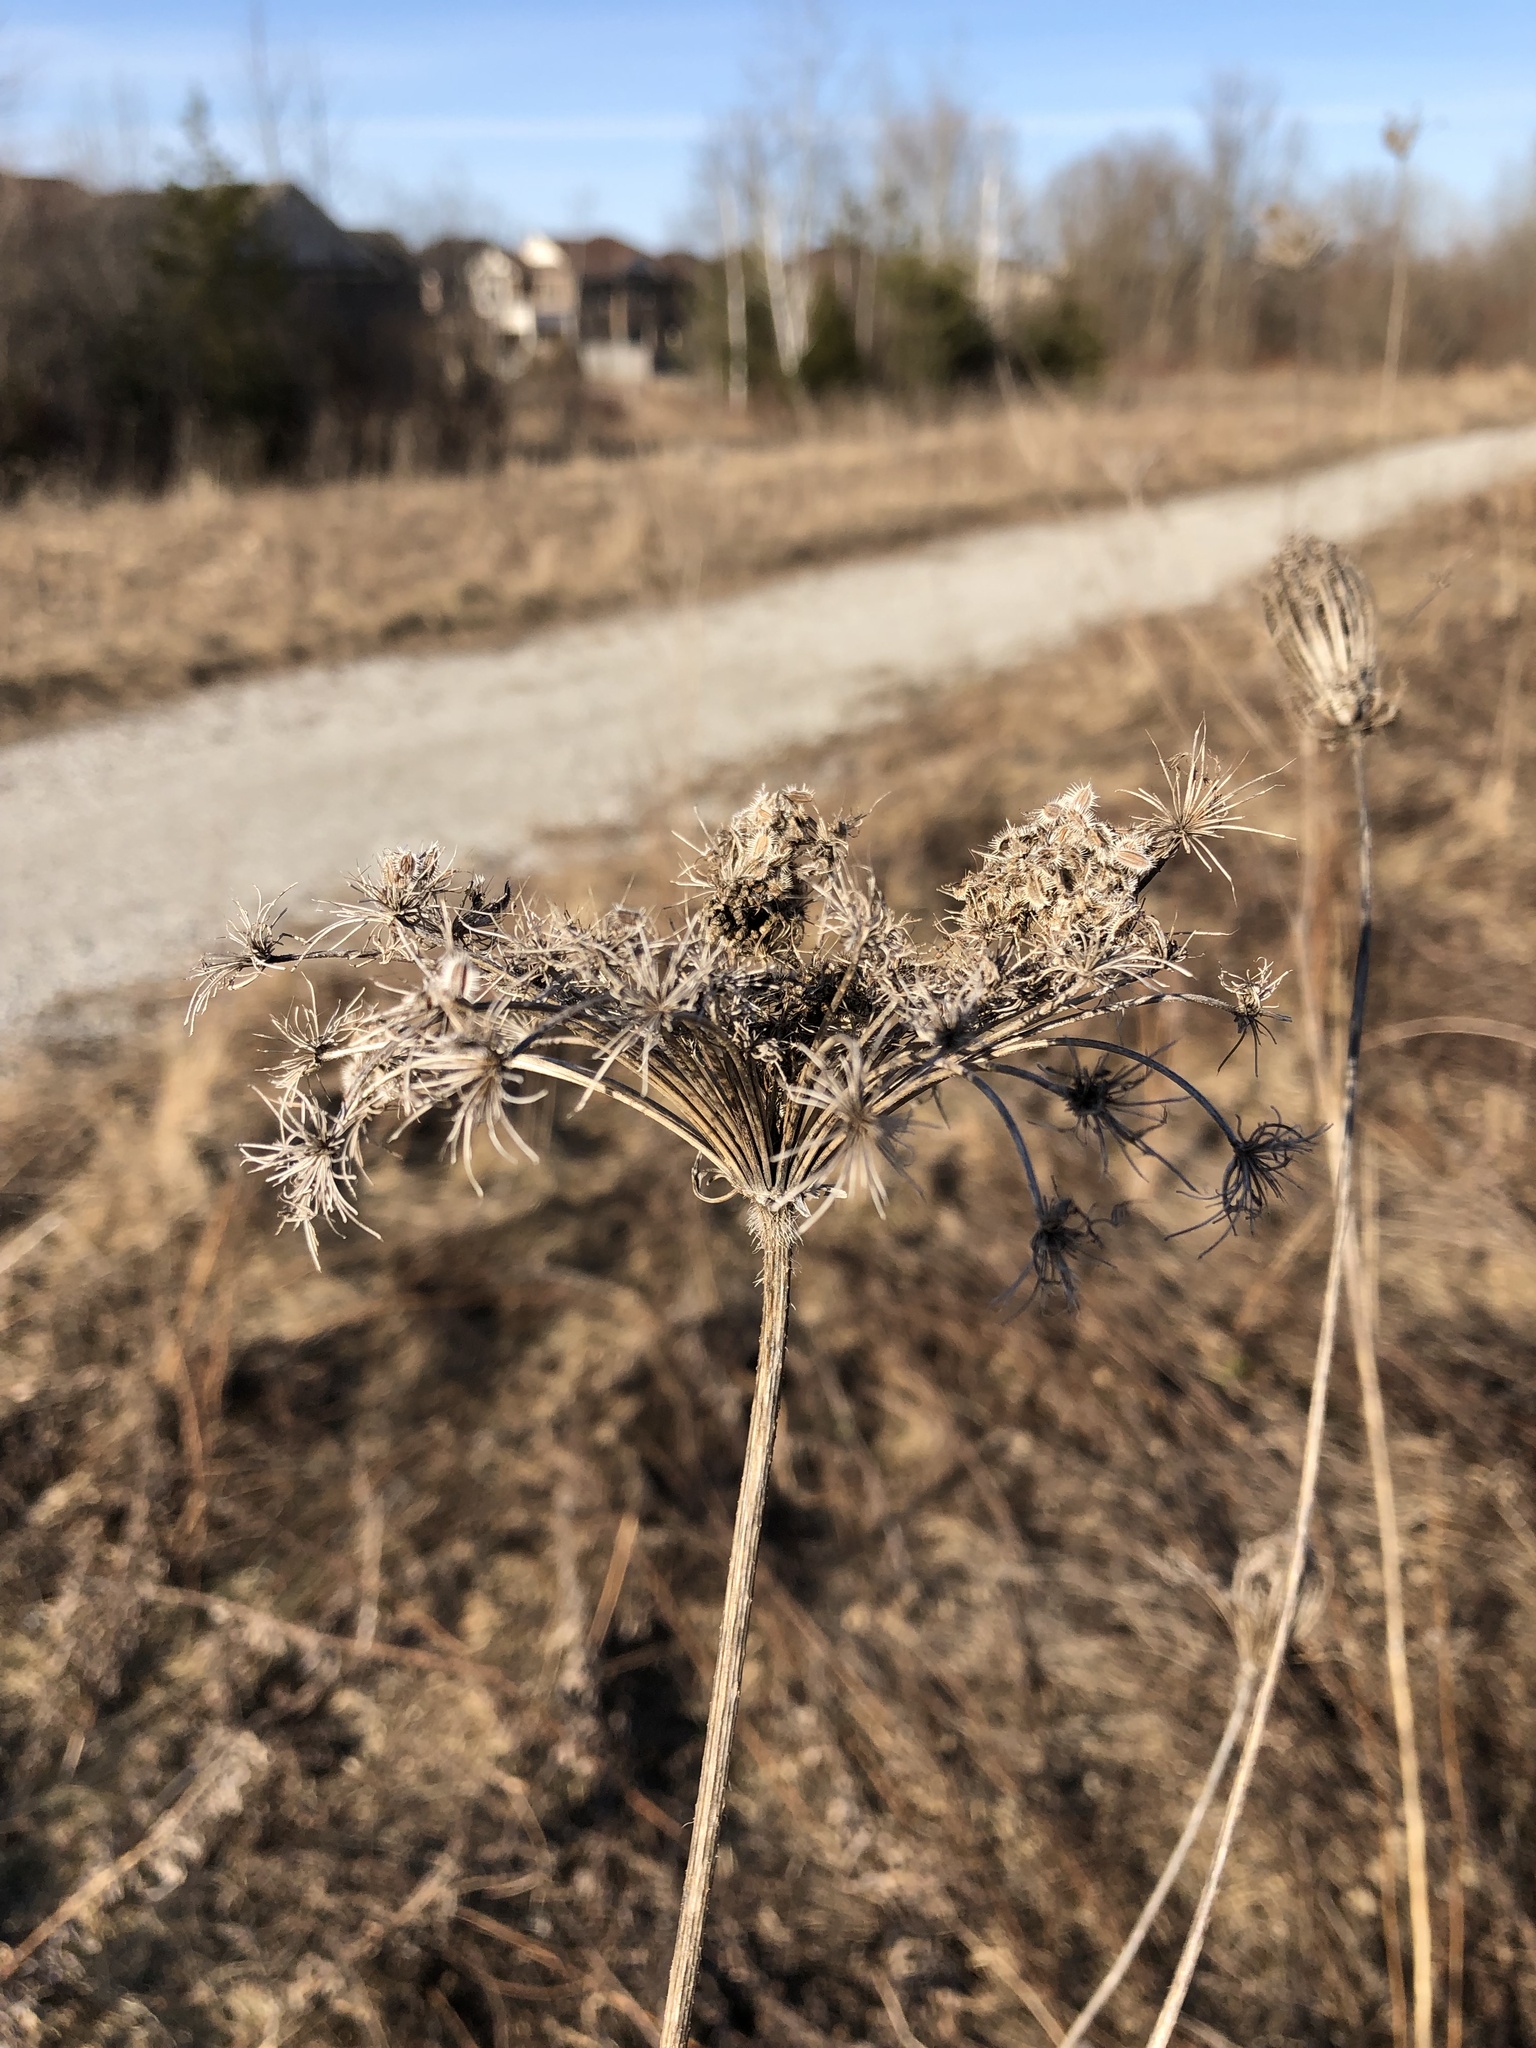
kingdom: Plantae
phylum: Tracheophyta
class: Magnoliopsida
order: Apiales
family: Apiaceae
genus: Daucus
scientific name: Daucus carota
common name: Wild carrot
